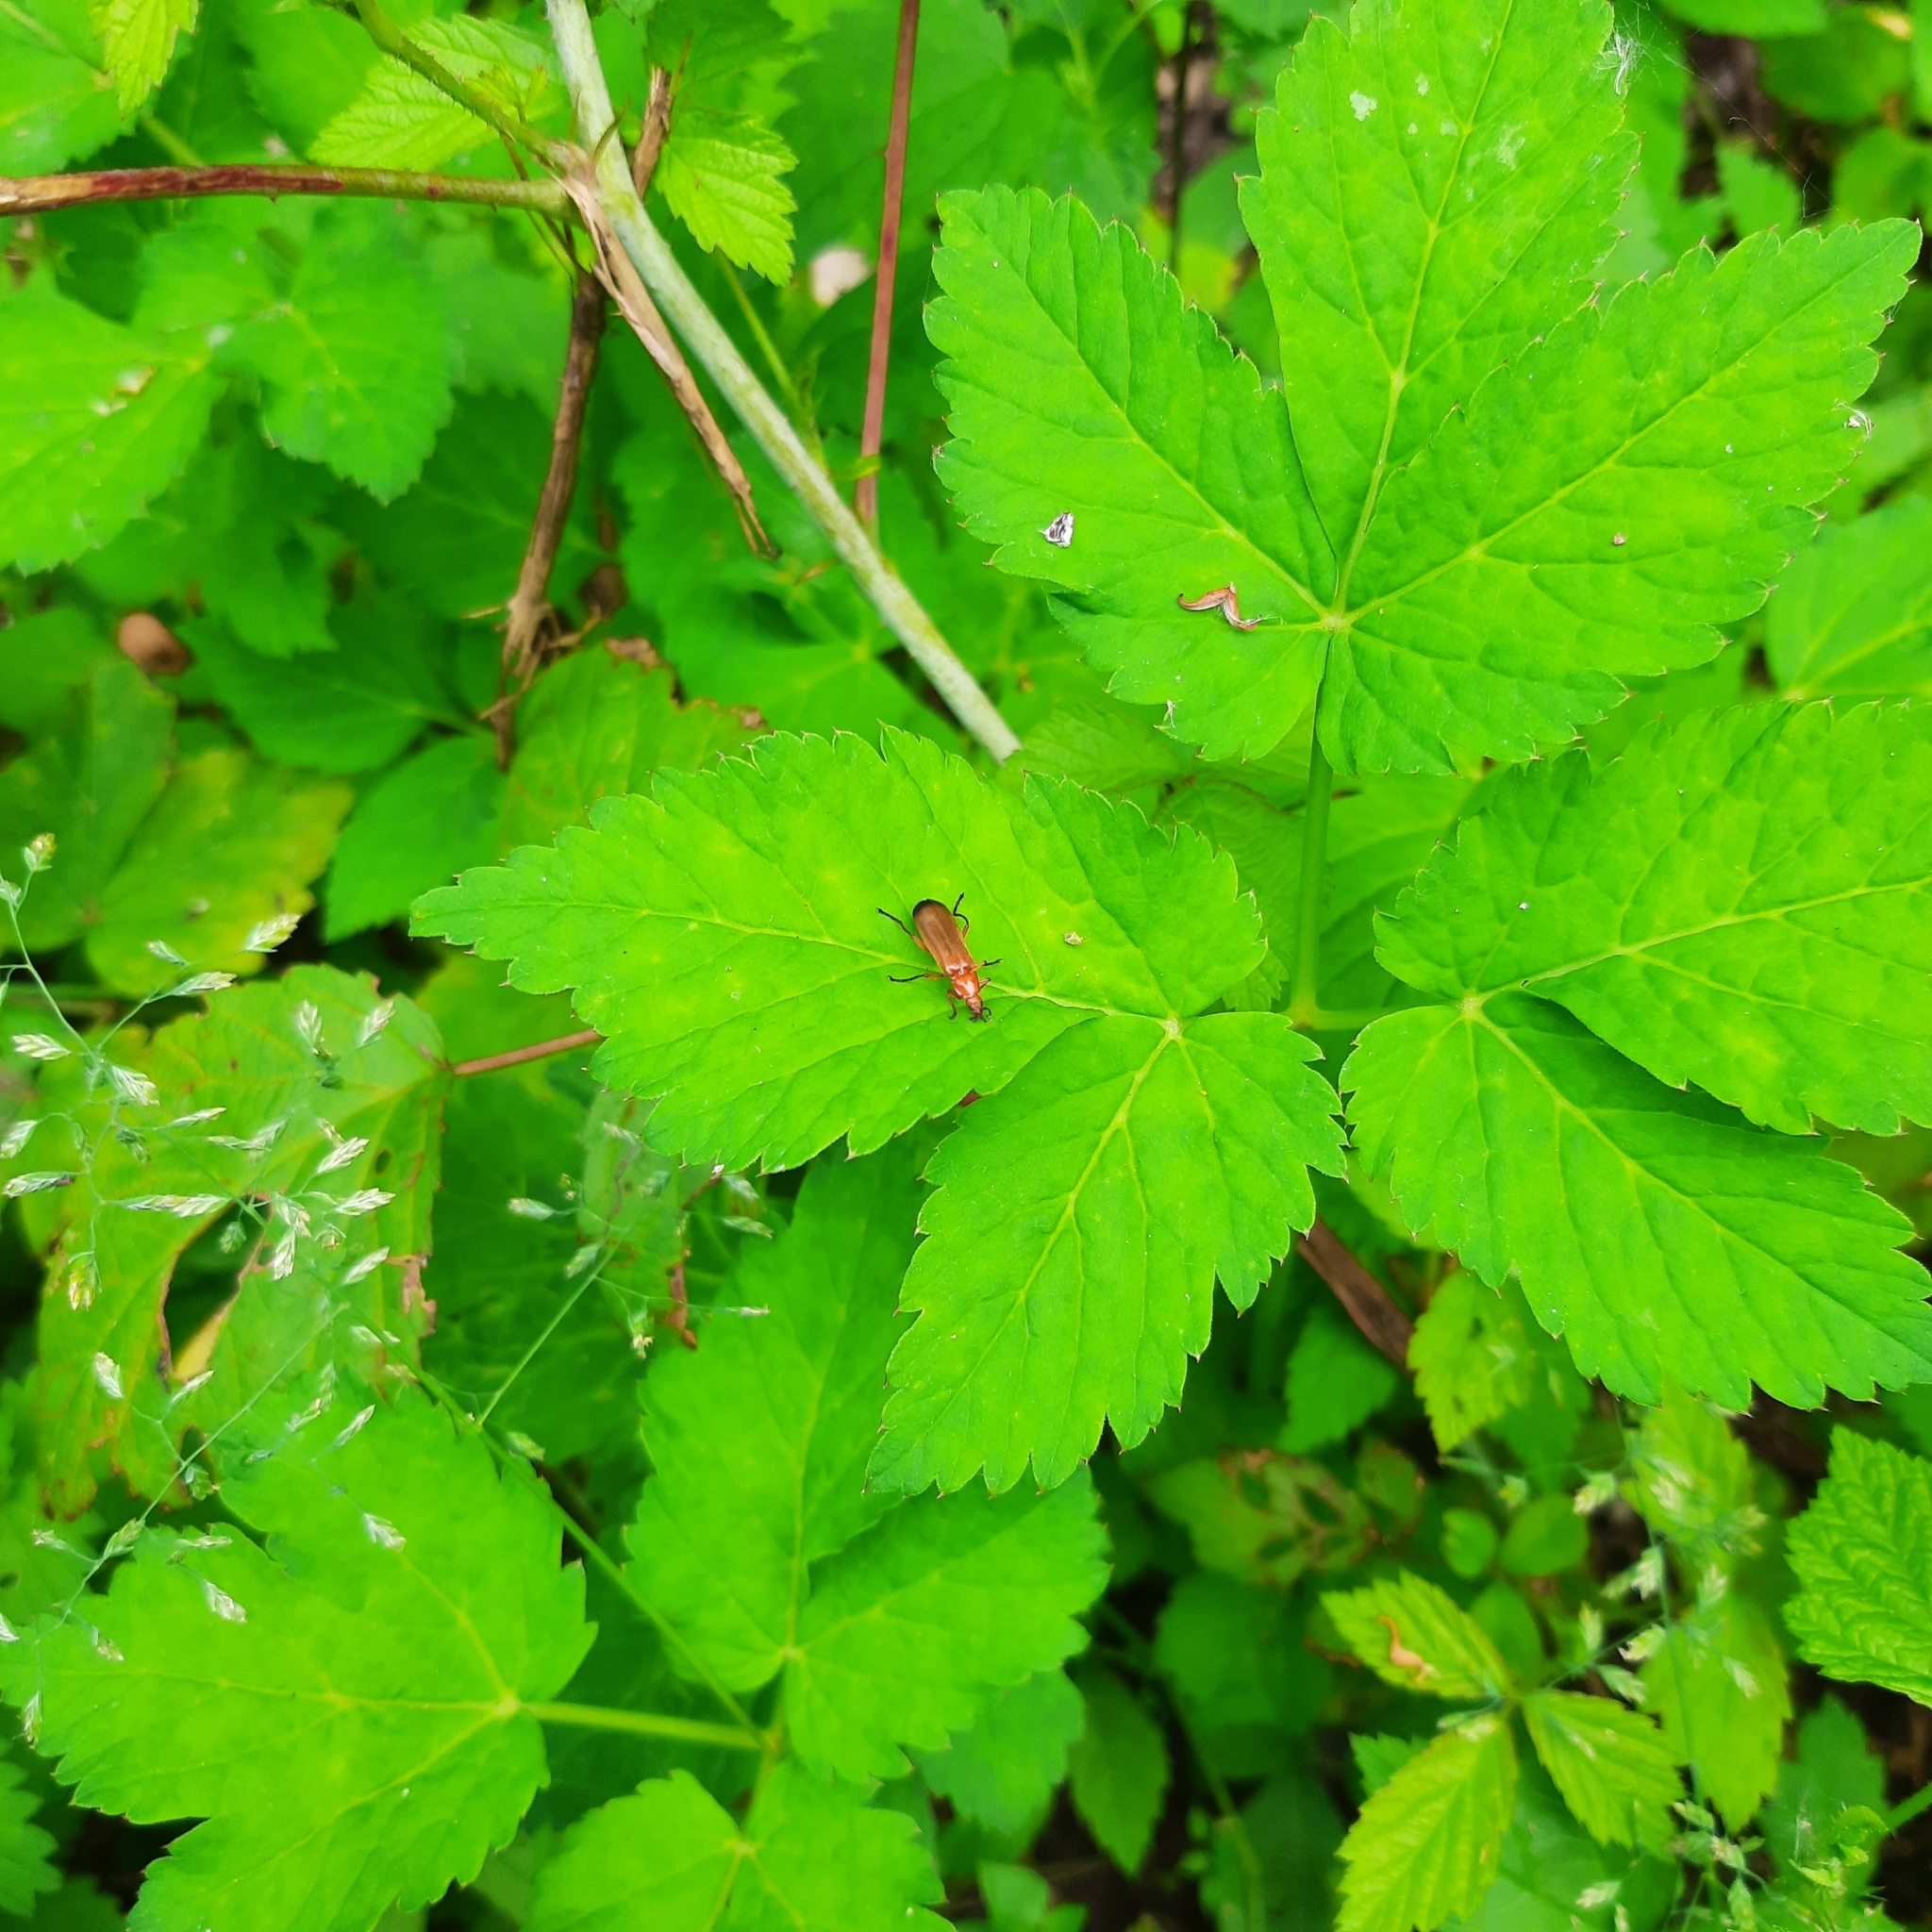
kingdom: Animalia
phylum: Arthropoda
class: Insecta
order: Coleoptera
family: Cantharidae
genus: Rhagonycha
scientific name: Rhagonycha fulva
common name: Common red soldier beetle
